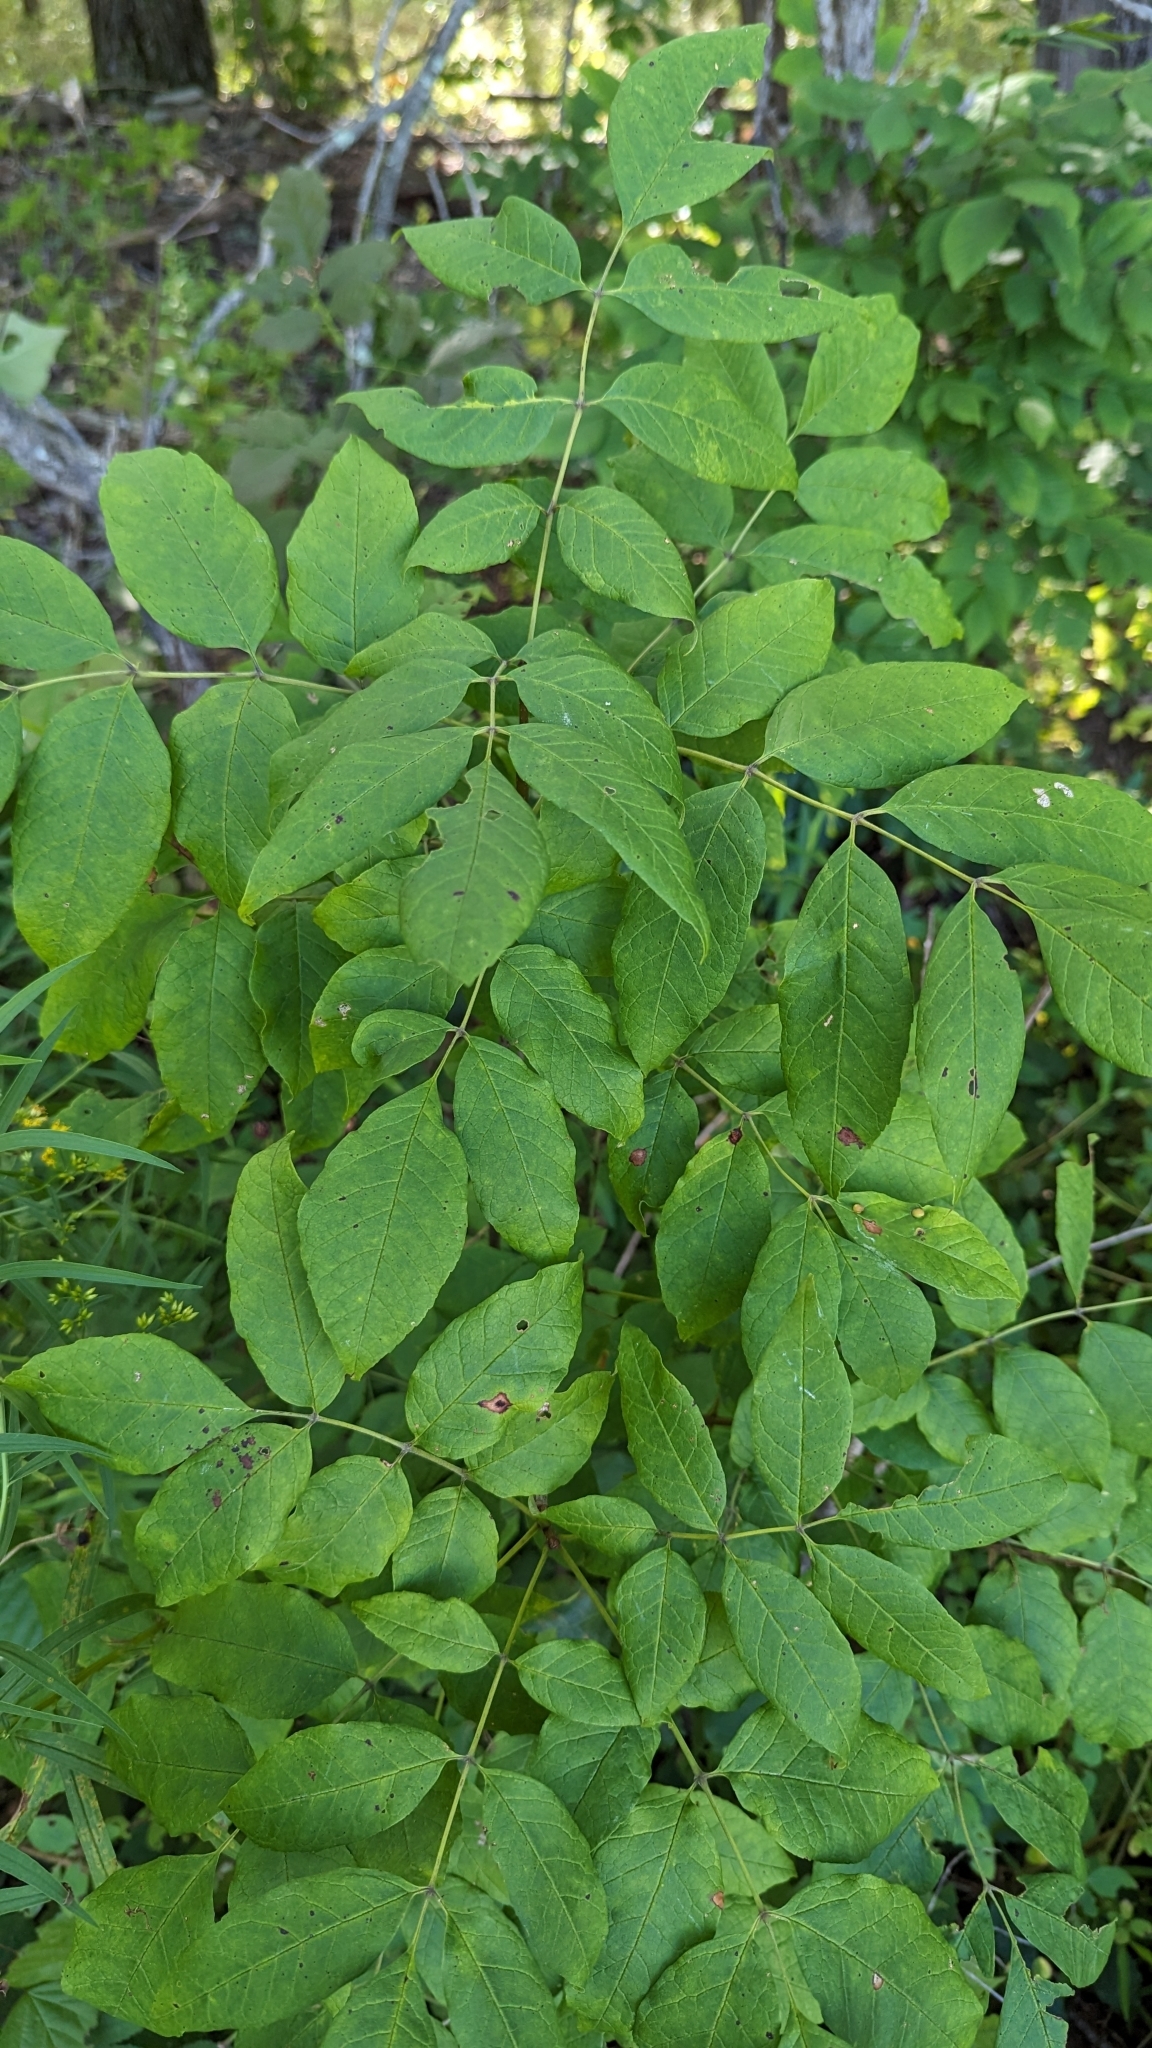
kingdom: Plantae
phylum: Tracheophyta
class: Magnoliopsida
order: Lamiales
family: Oleaceae
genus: Fraxinus
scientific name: Fraxinus americana
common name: White ash
